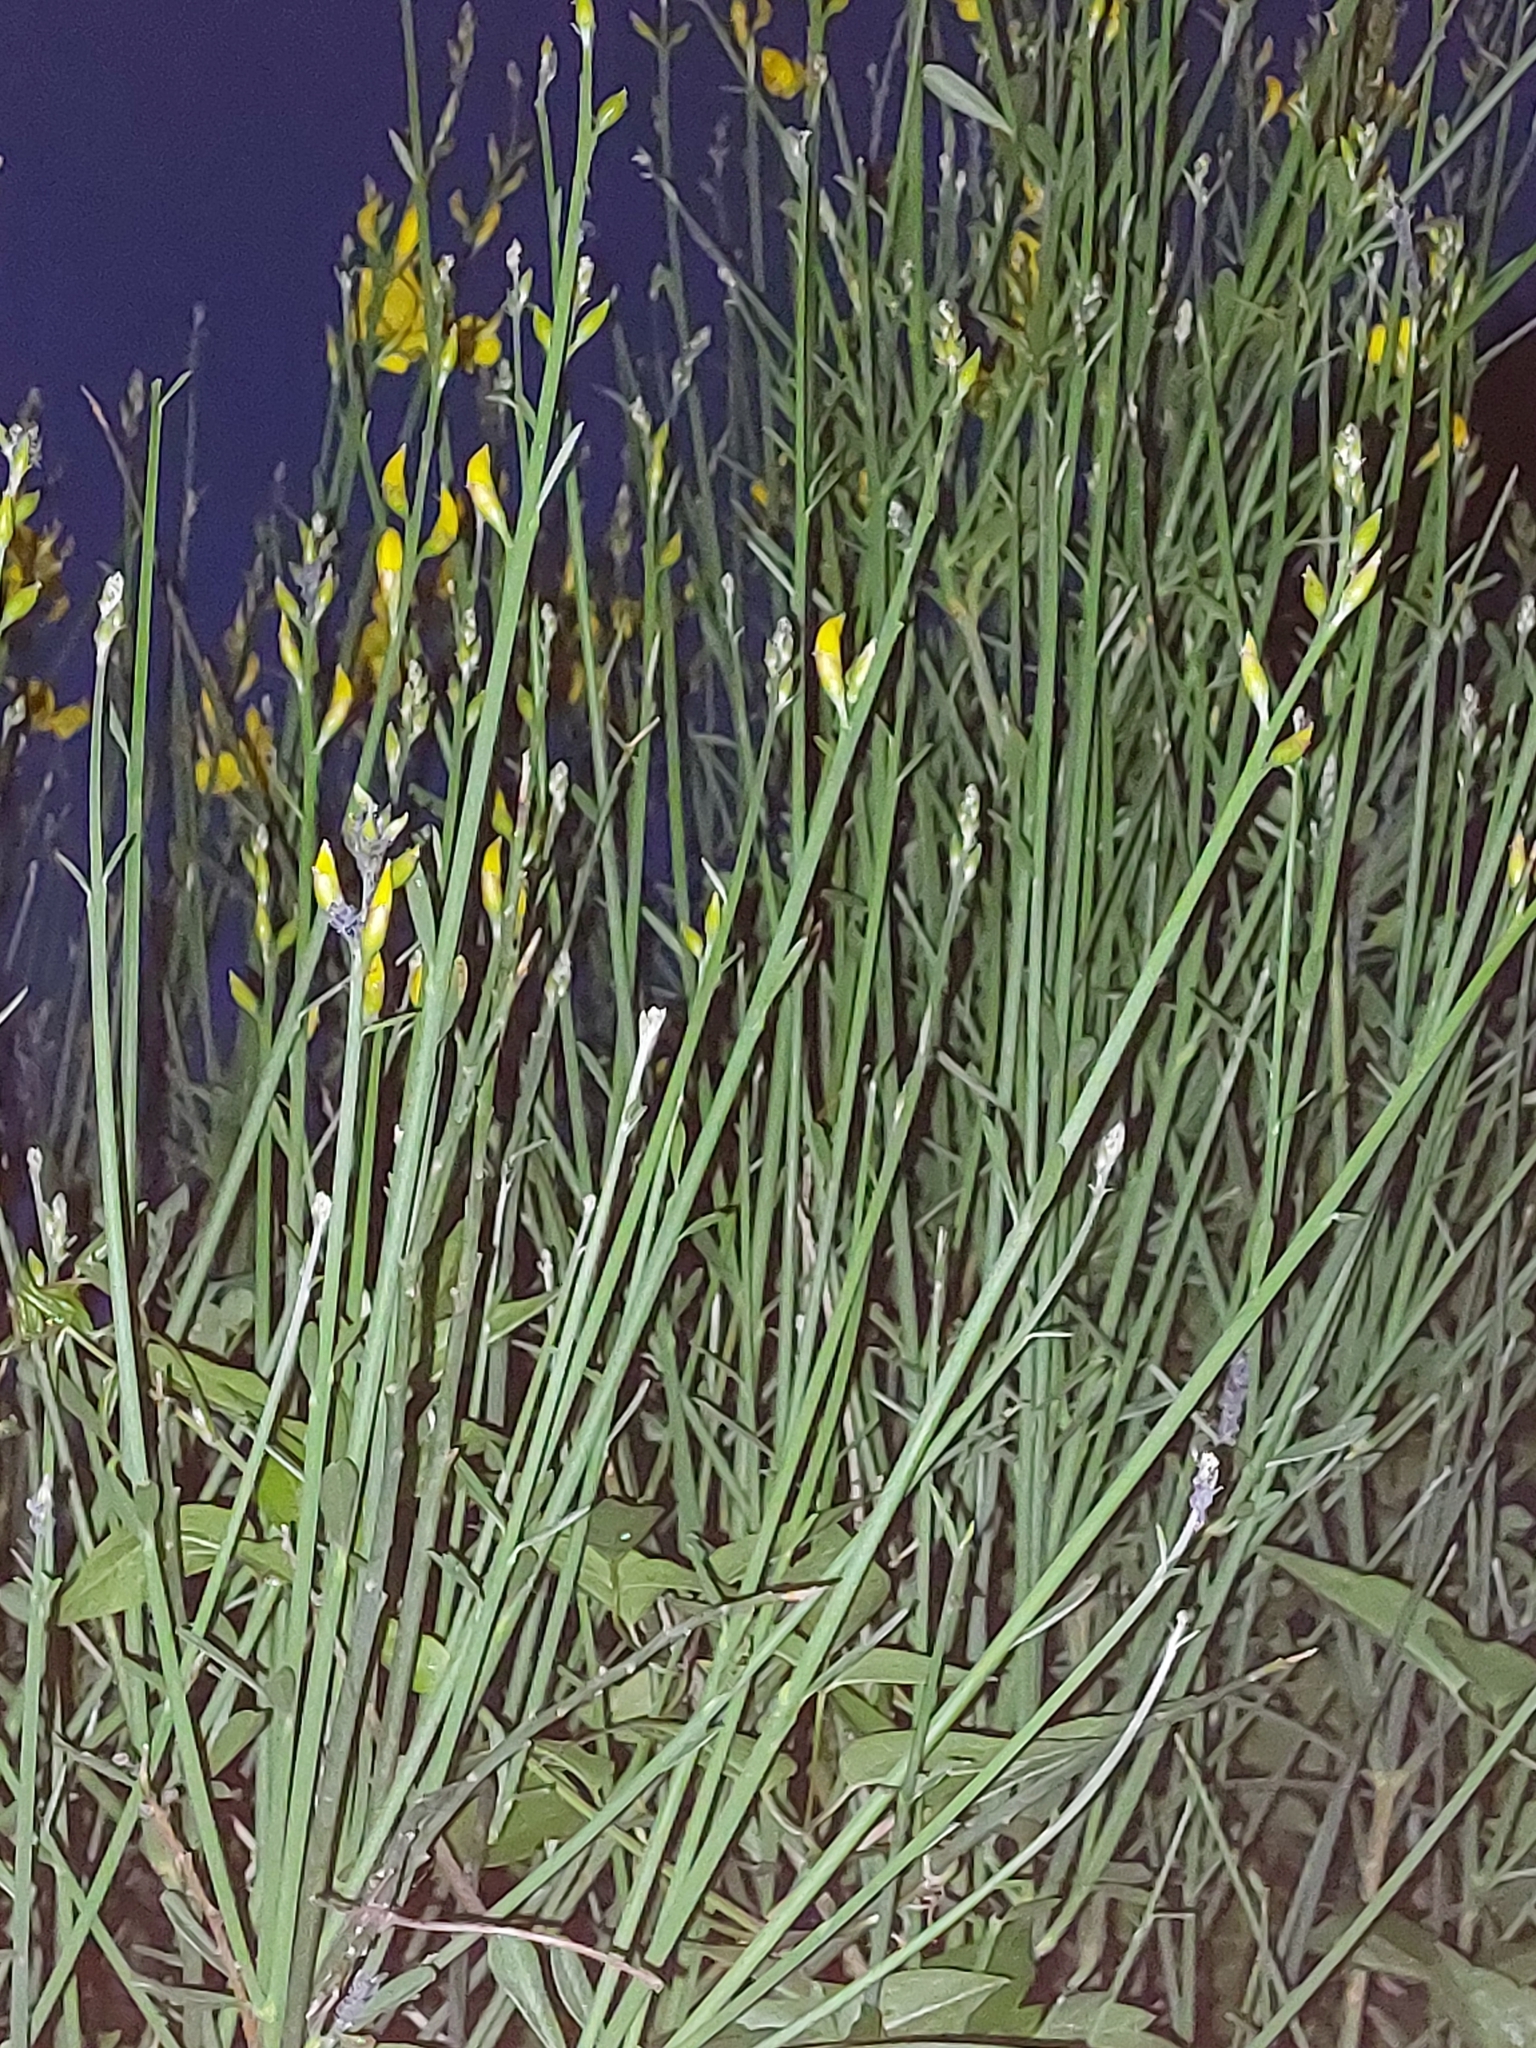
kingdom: Plantae
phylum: Tracheophyta
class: Magnoliopsida
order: Fabales
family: Fabaceae
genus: Spartium
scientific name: Spartium junceum
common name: Spanish broom
